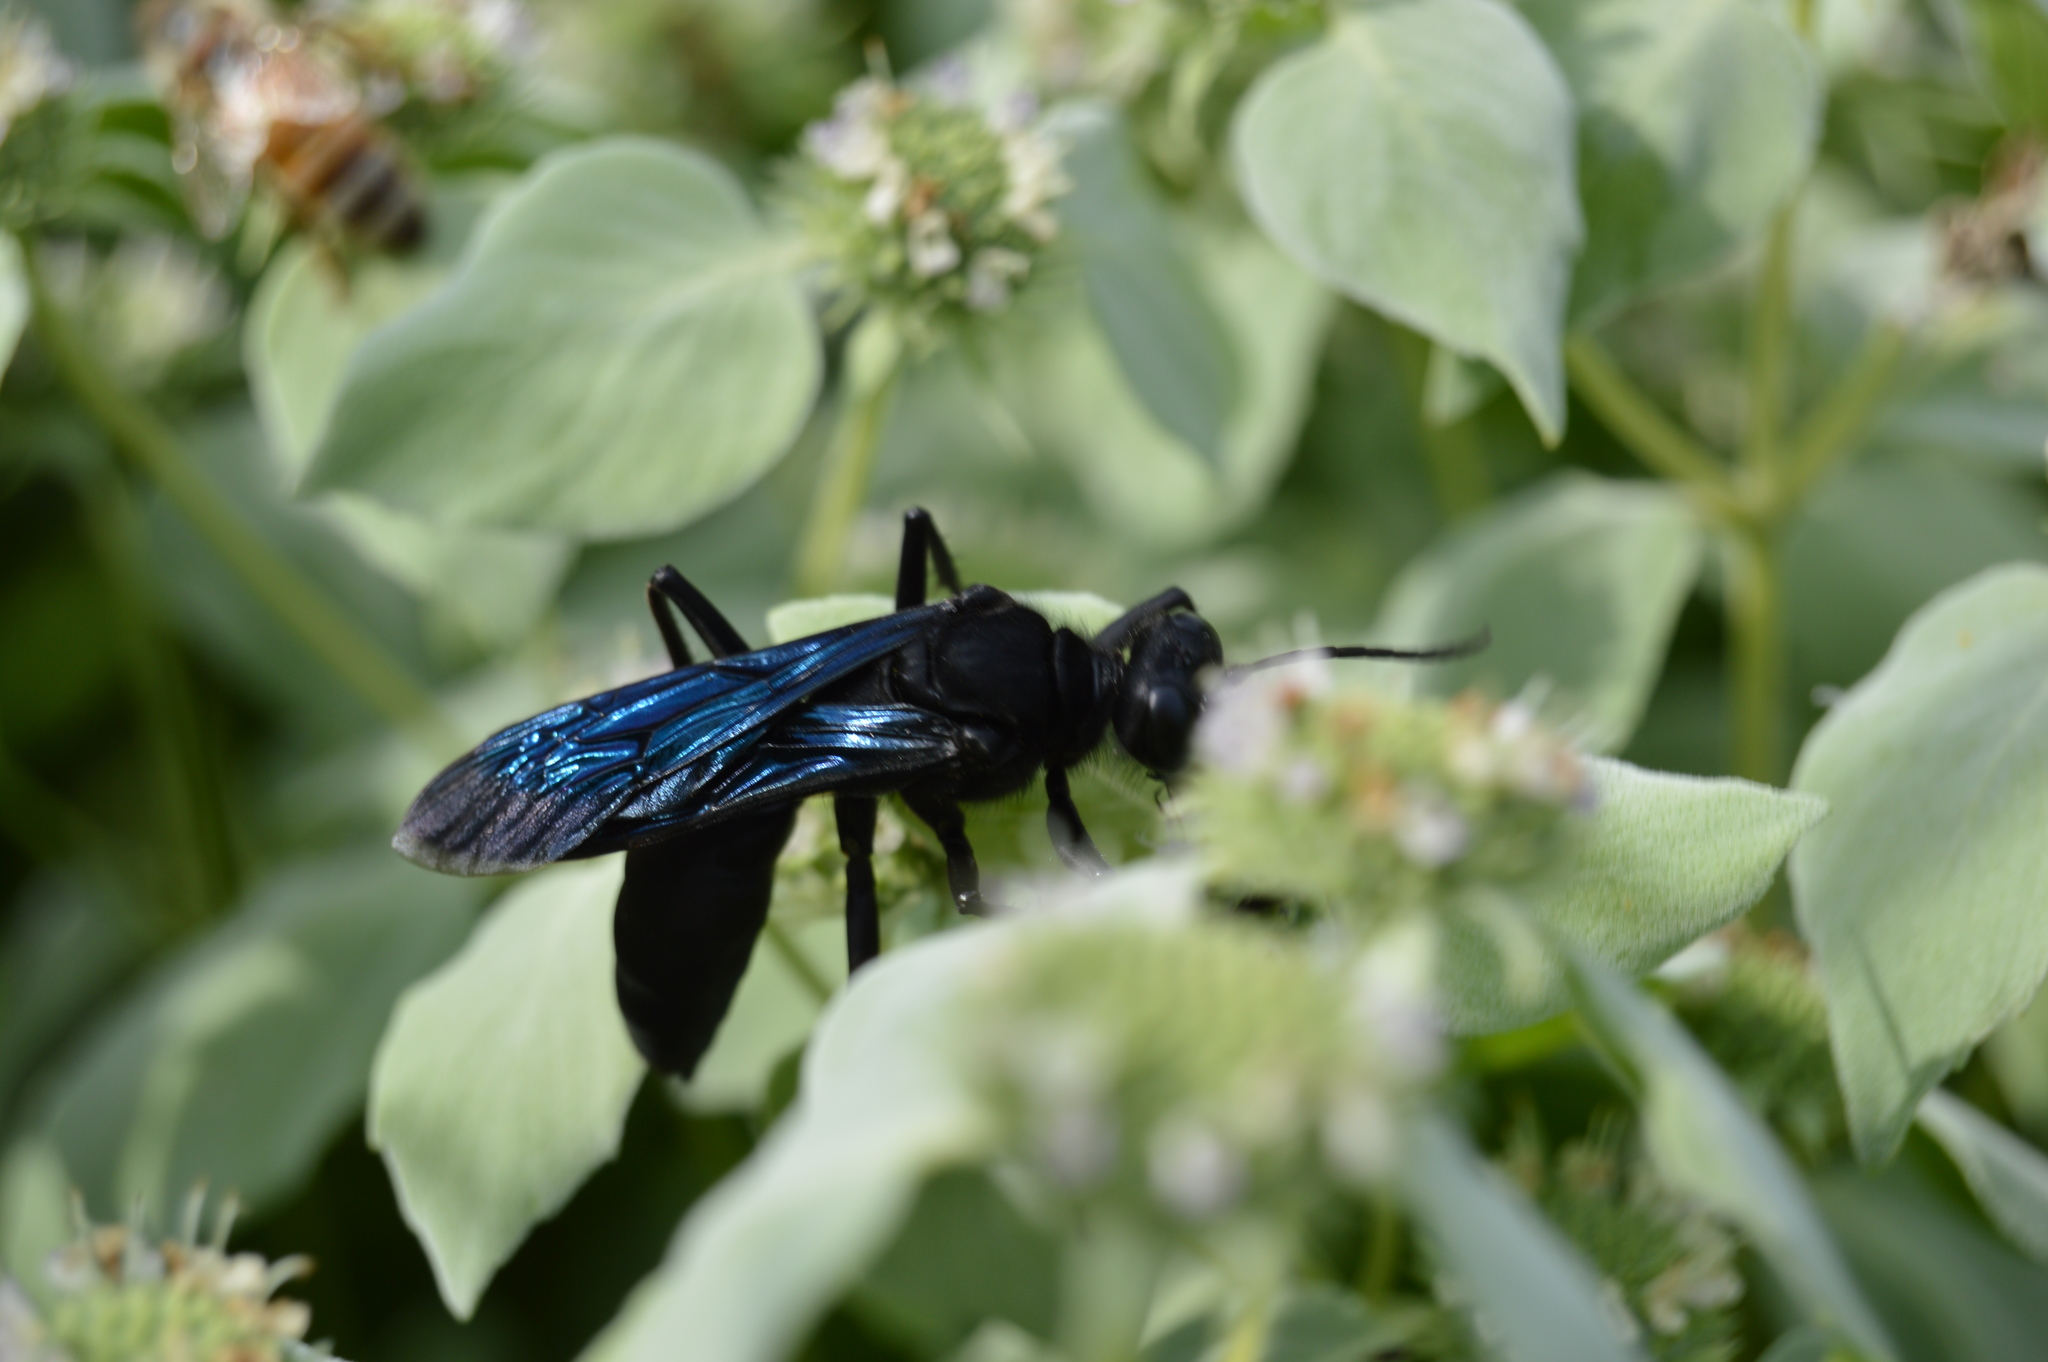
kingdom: Animalia
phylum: Arthropoda
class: Insecta
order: Hymenoptera
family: Sphecidae
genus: Sphex
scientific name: Sphex pensylvanicus
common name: Great black digger wasp
